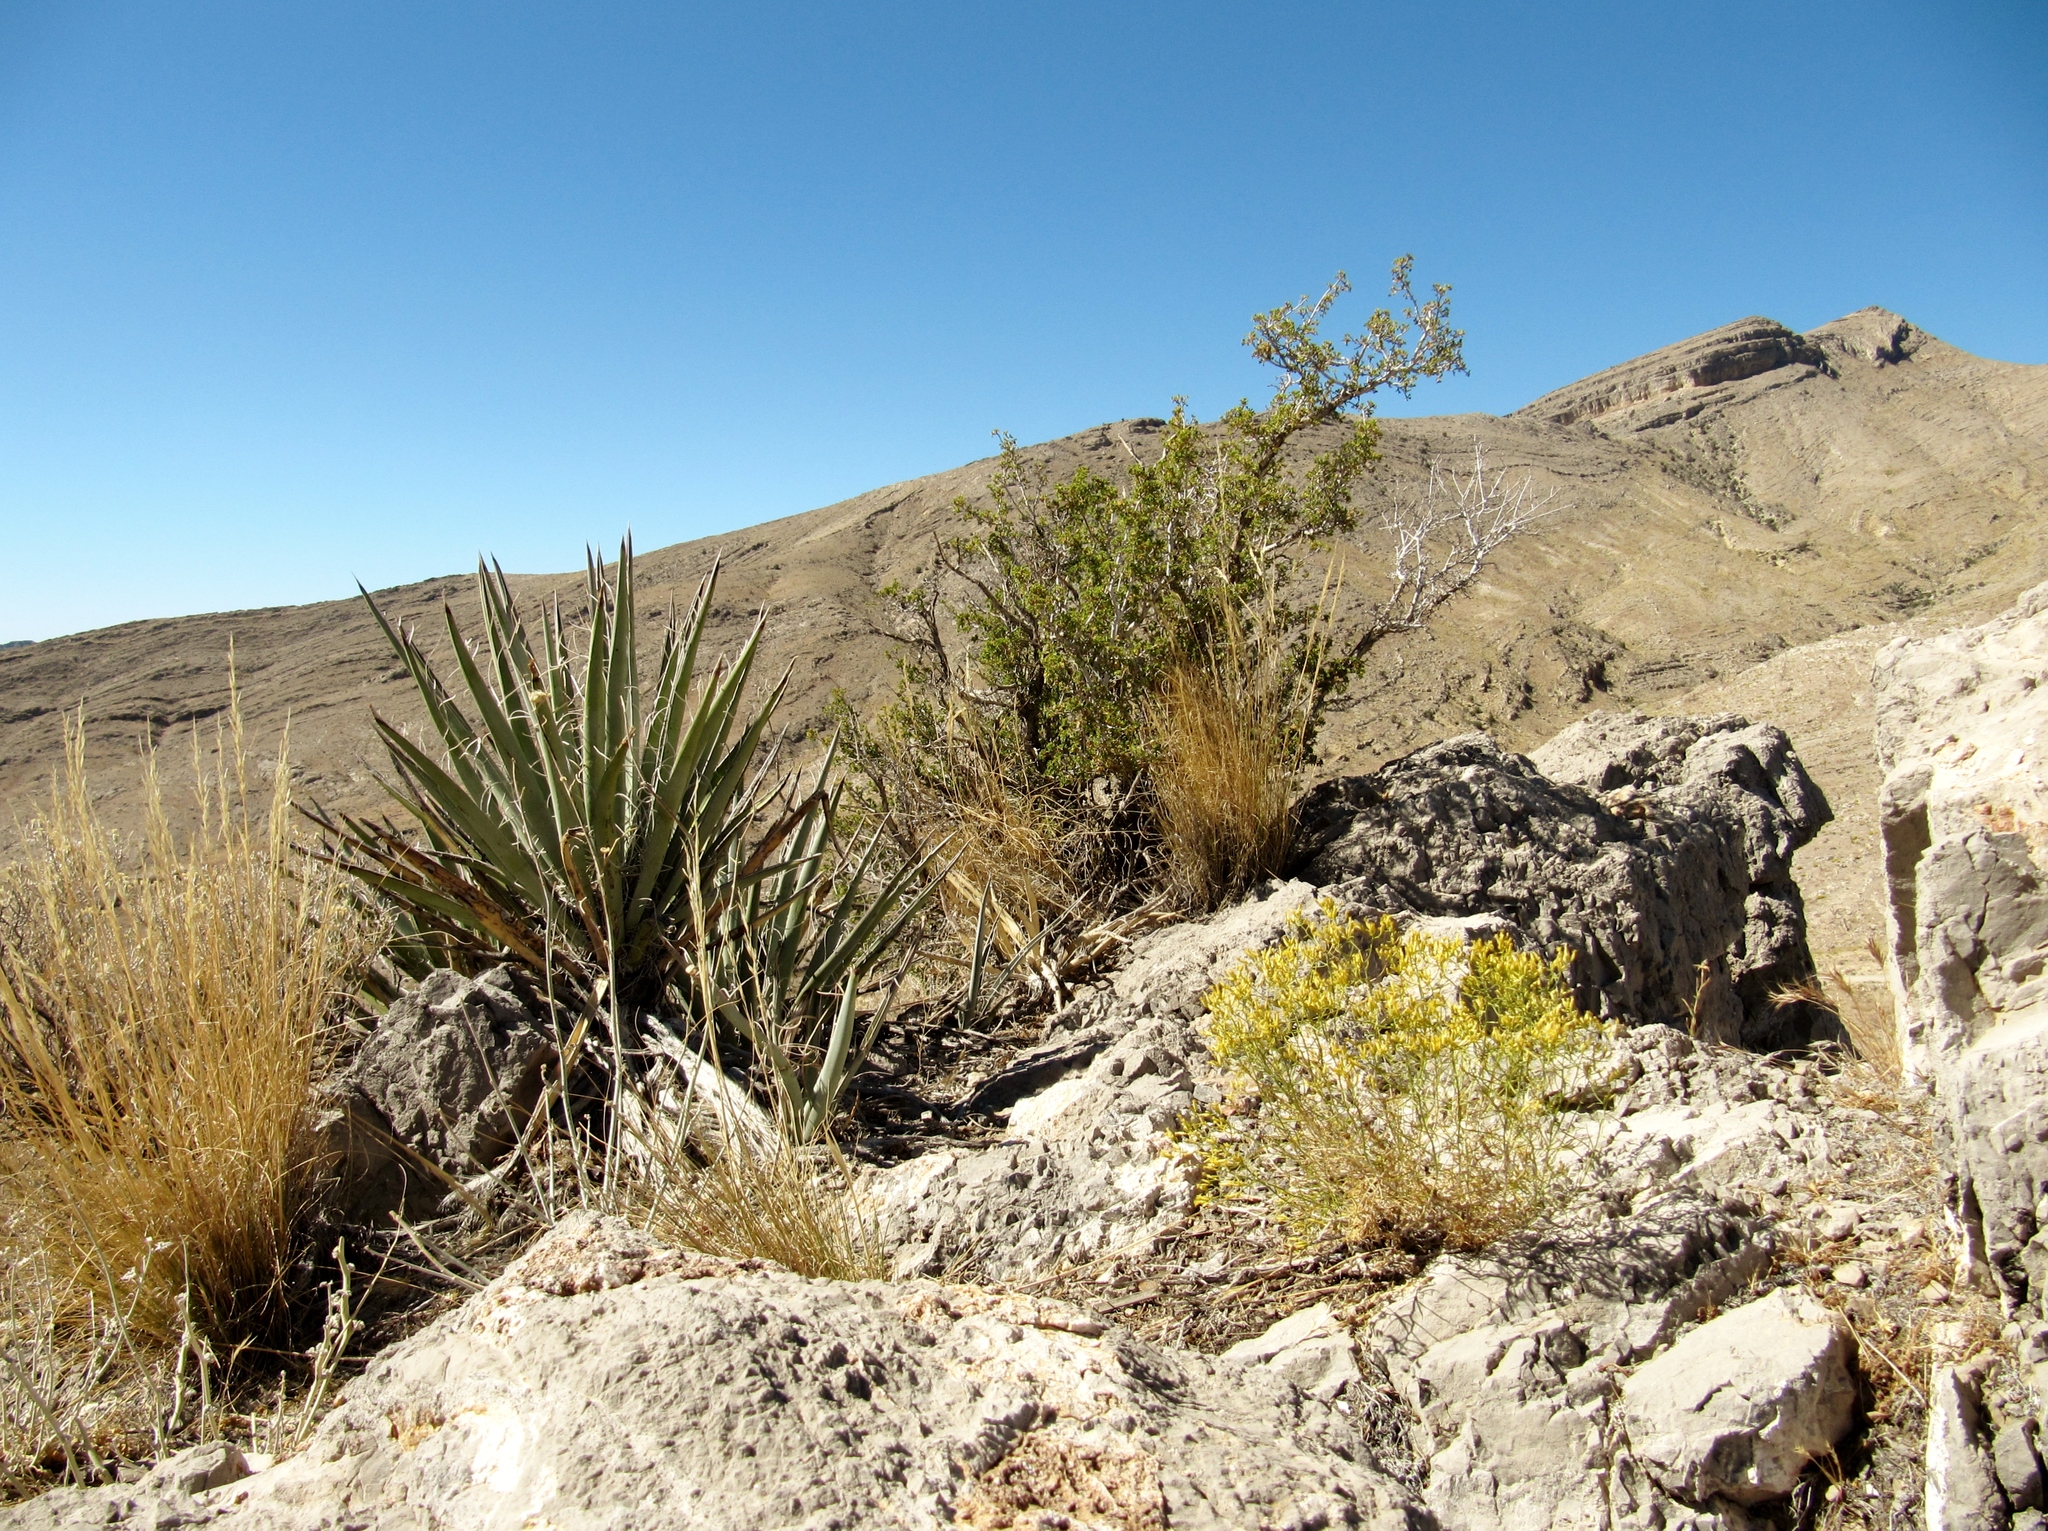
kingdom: Plantae
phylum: Tracheophyta
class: Liliopsida
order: Asparagales
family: Asparagaceae
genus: Yucca
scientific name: Yucca schidigera
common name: Mojave yucca
